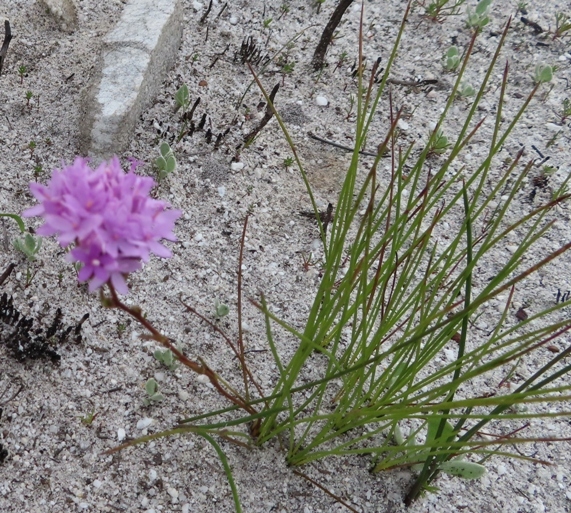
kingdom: Plantae
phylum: Tracheophyta
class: Magnoliopsida
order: Asterales
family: Asteraceae
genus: Corymbium
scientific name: Corymbium africanum
